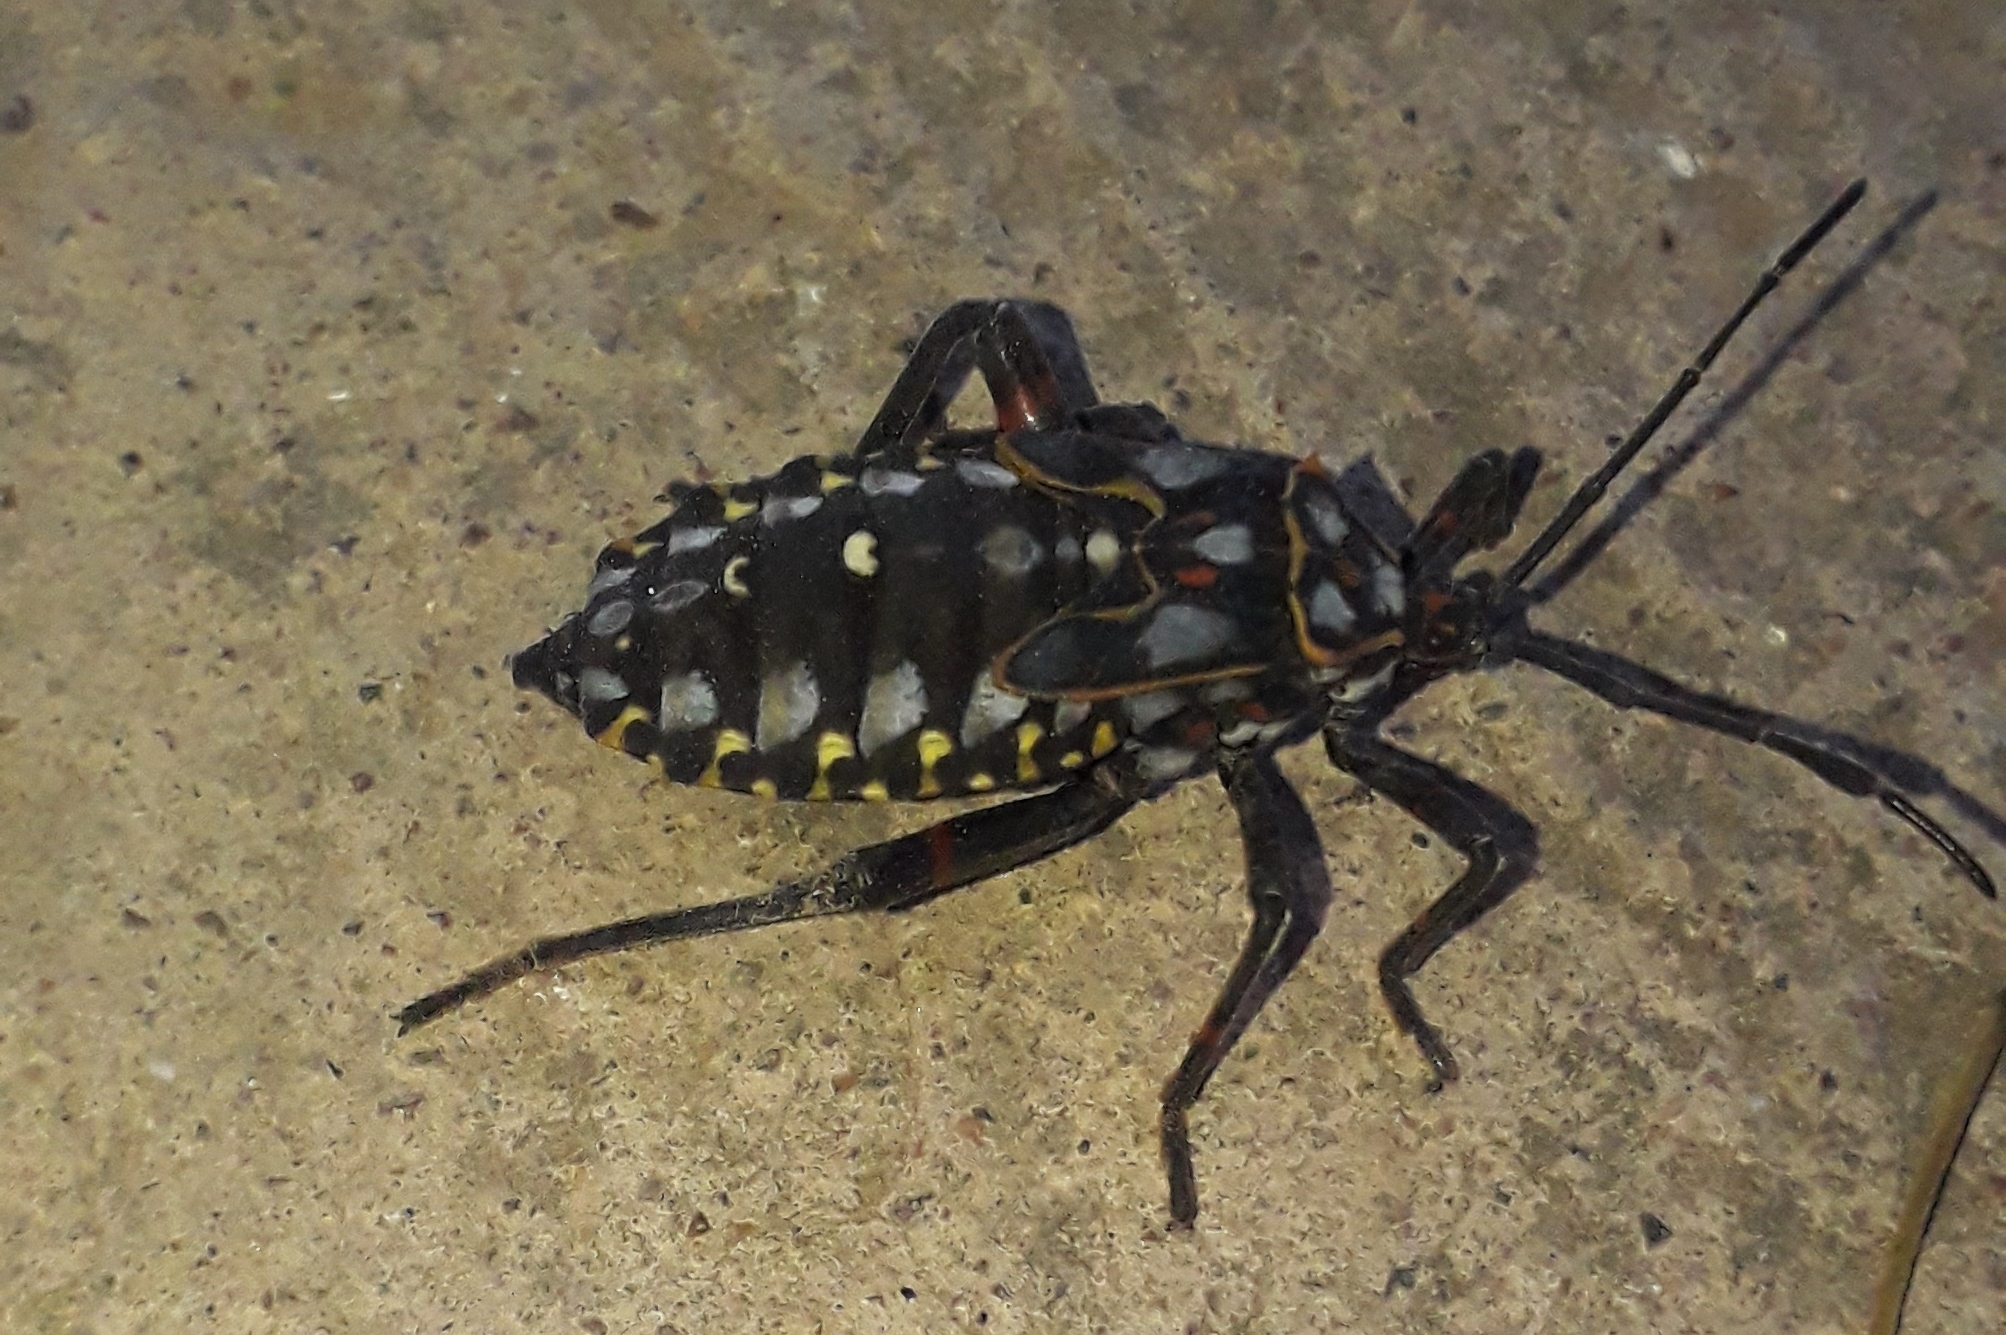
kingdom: Animalia
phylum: Arthropoda
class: Insecta
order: Hemiptera
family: Coreidae
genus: Pachylis
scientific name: Pachylis argentinus
